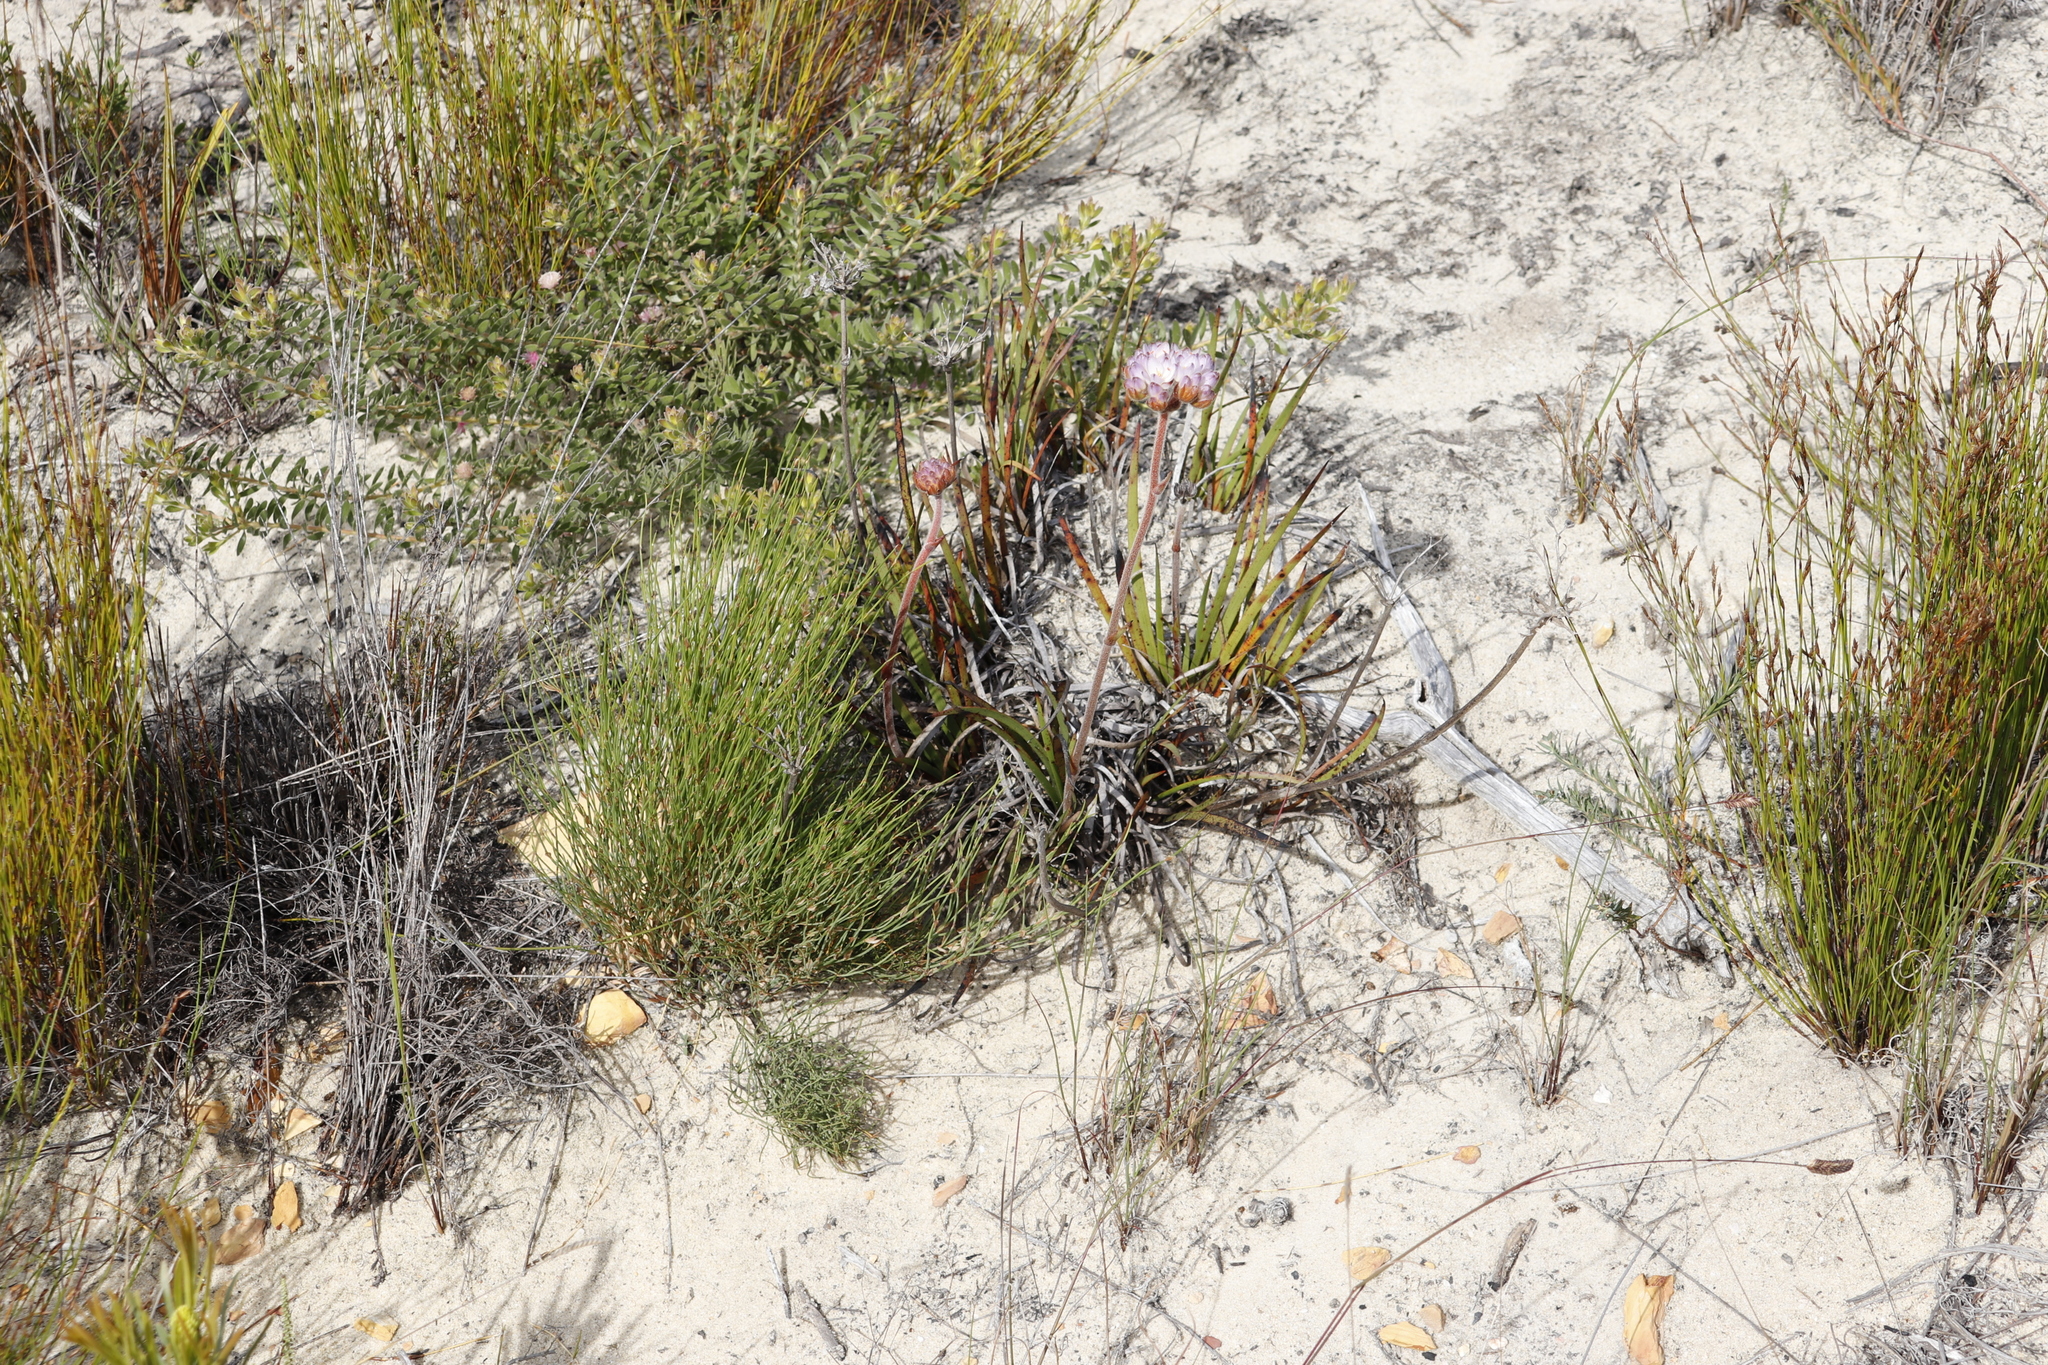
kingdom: Plantae
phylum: Tracheophyta
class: Liliopsida
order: Commelinales
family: Haemodoraceae
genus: Dilatris
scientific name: Dilatris pillansii
